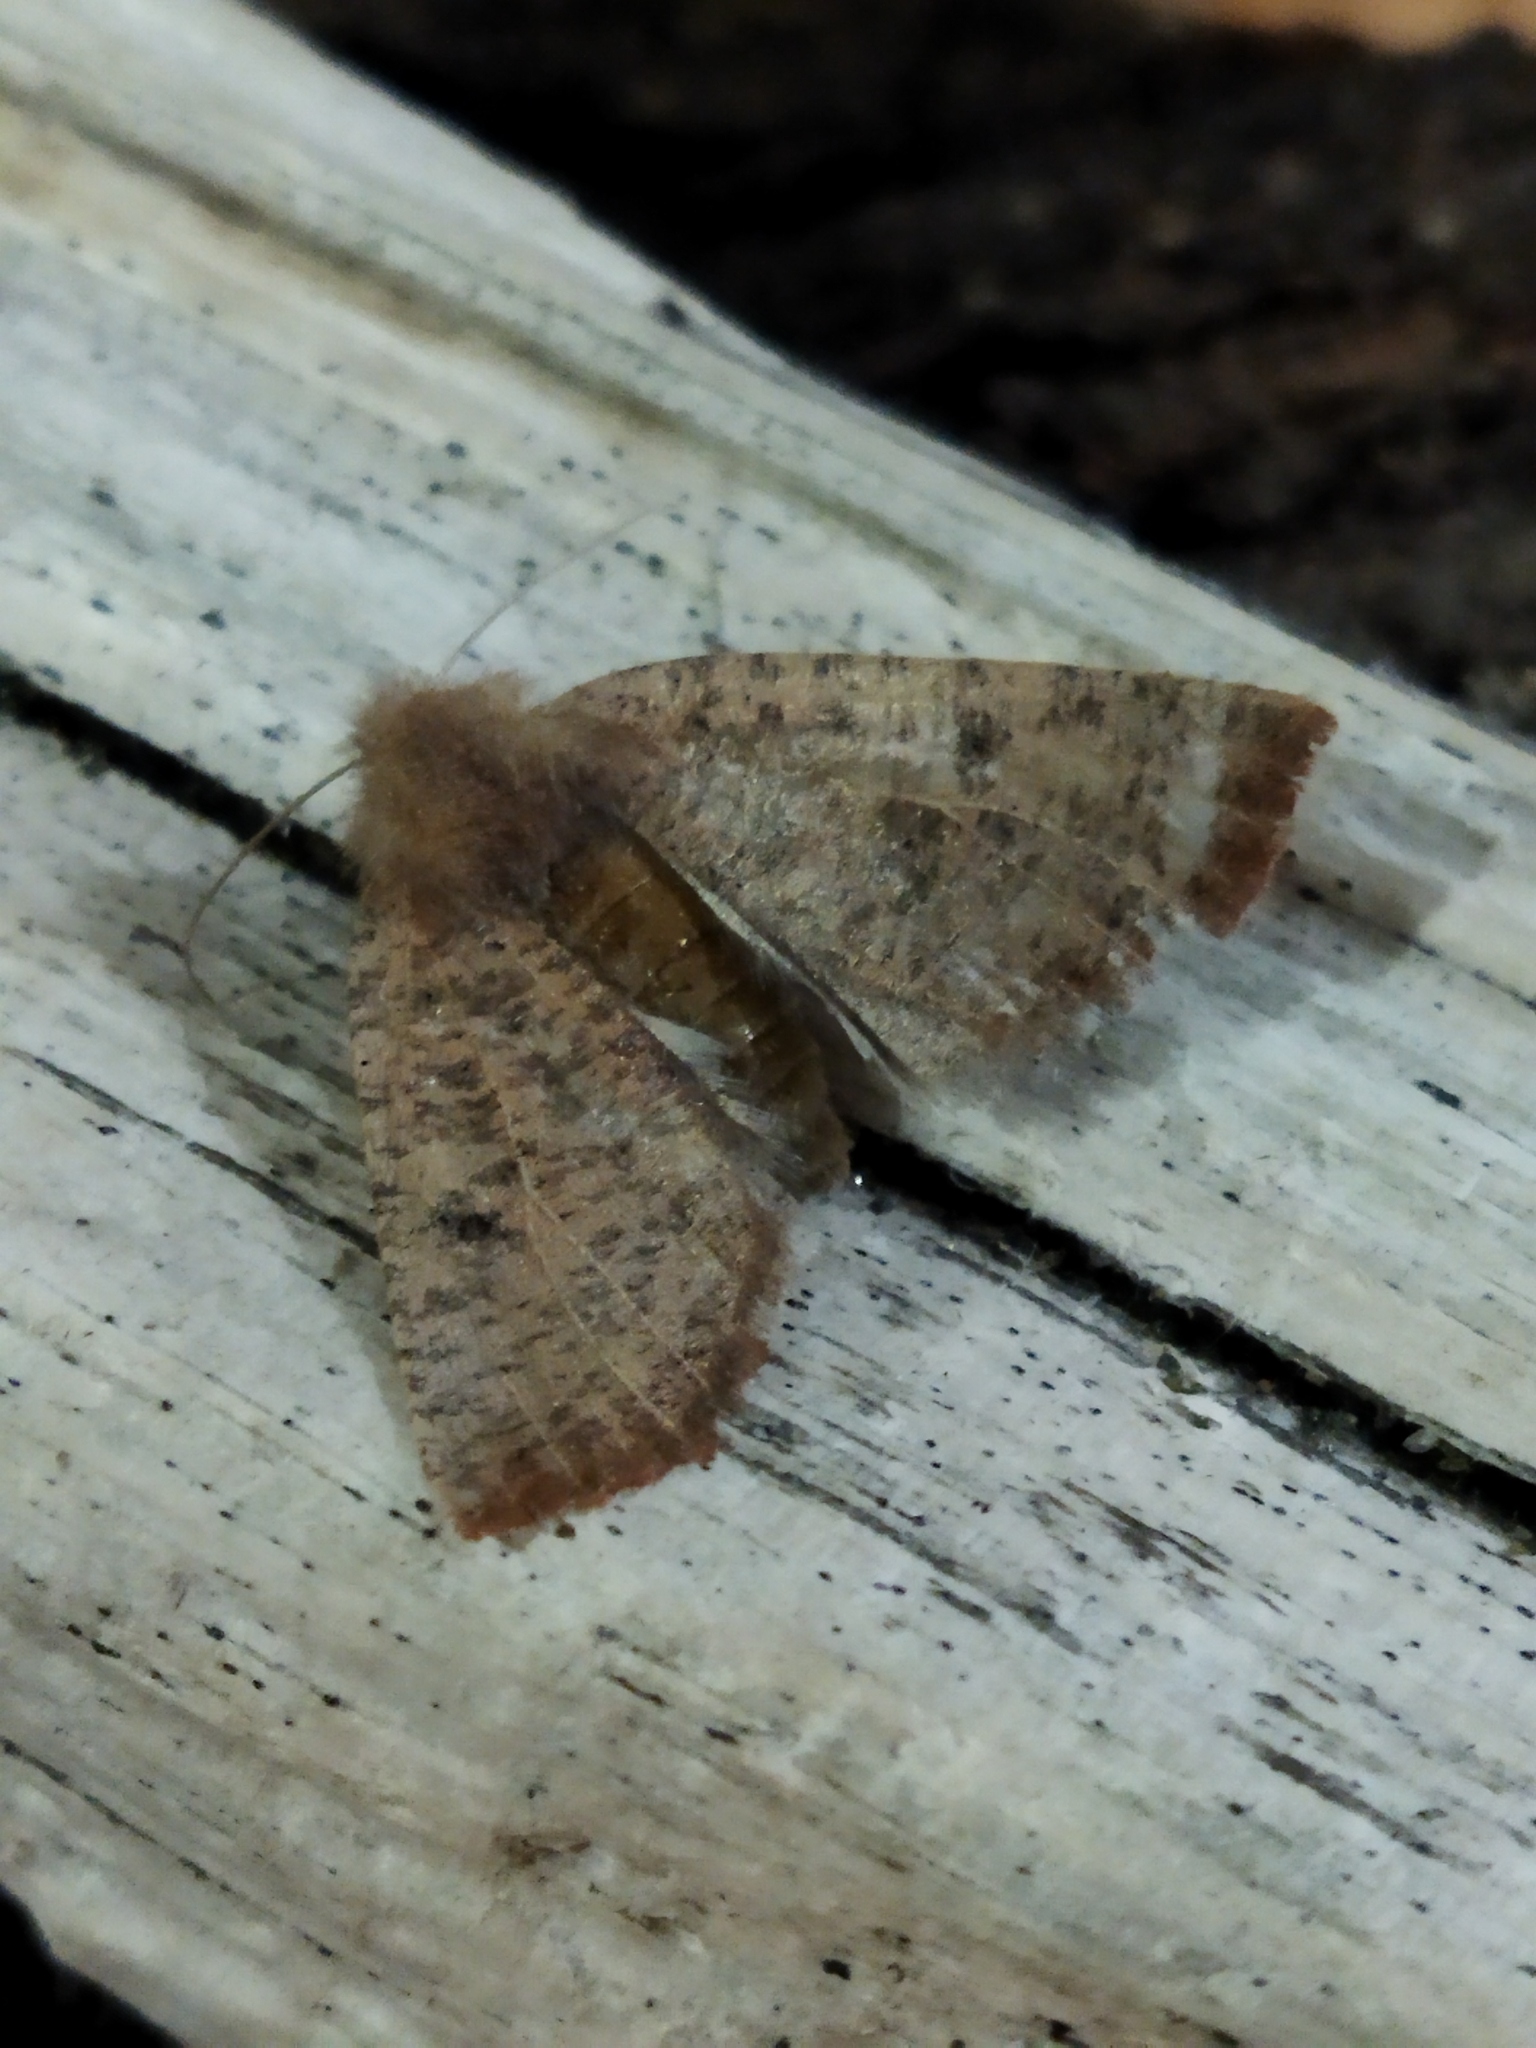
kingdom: Animalia
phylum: Arthropoda
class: Insecta
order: Lepidoptera
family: Geometridae
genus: Dasycorsa
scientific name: Dasycorsa modesta
